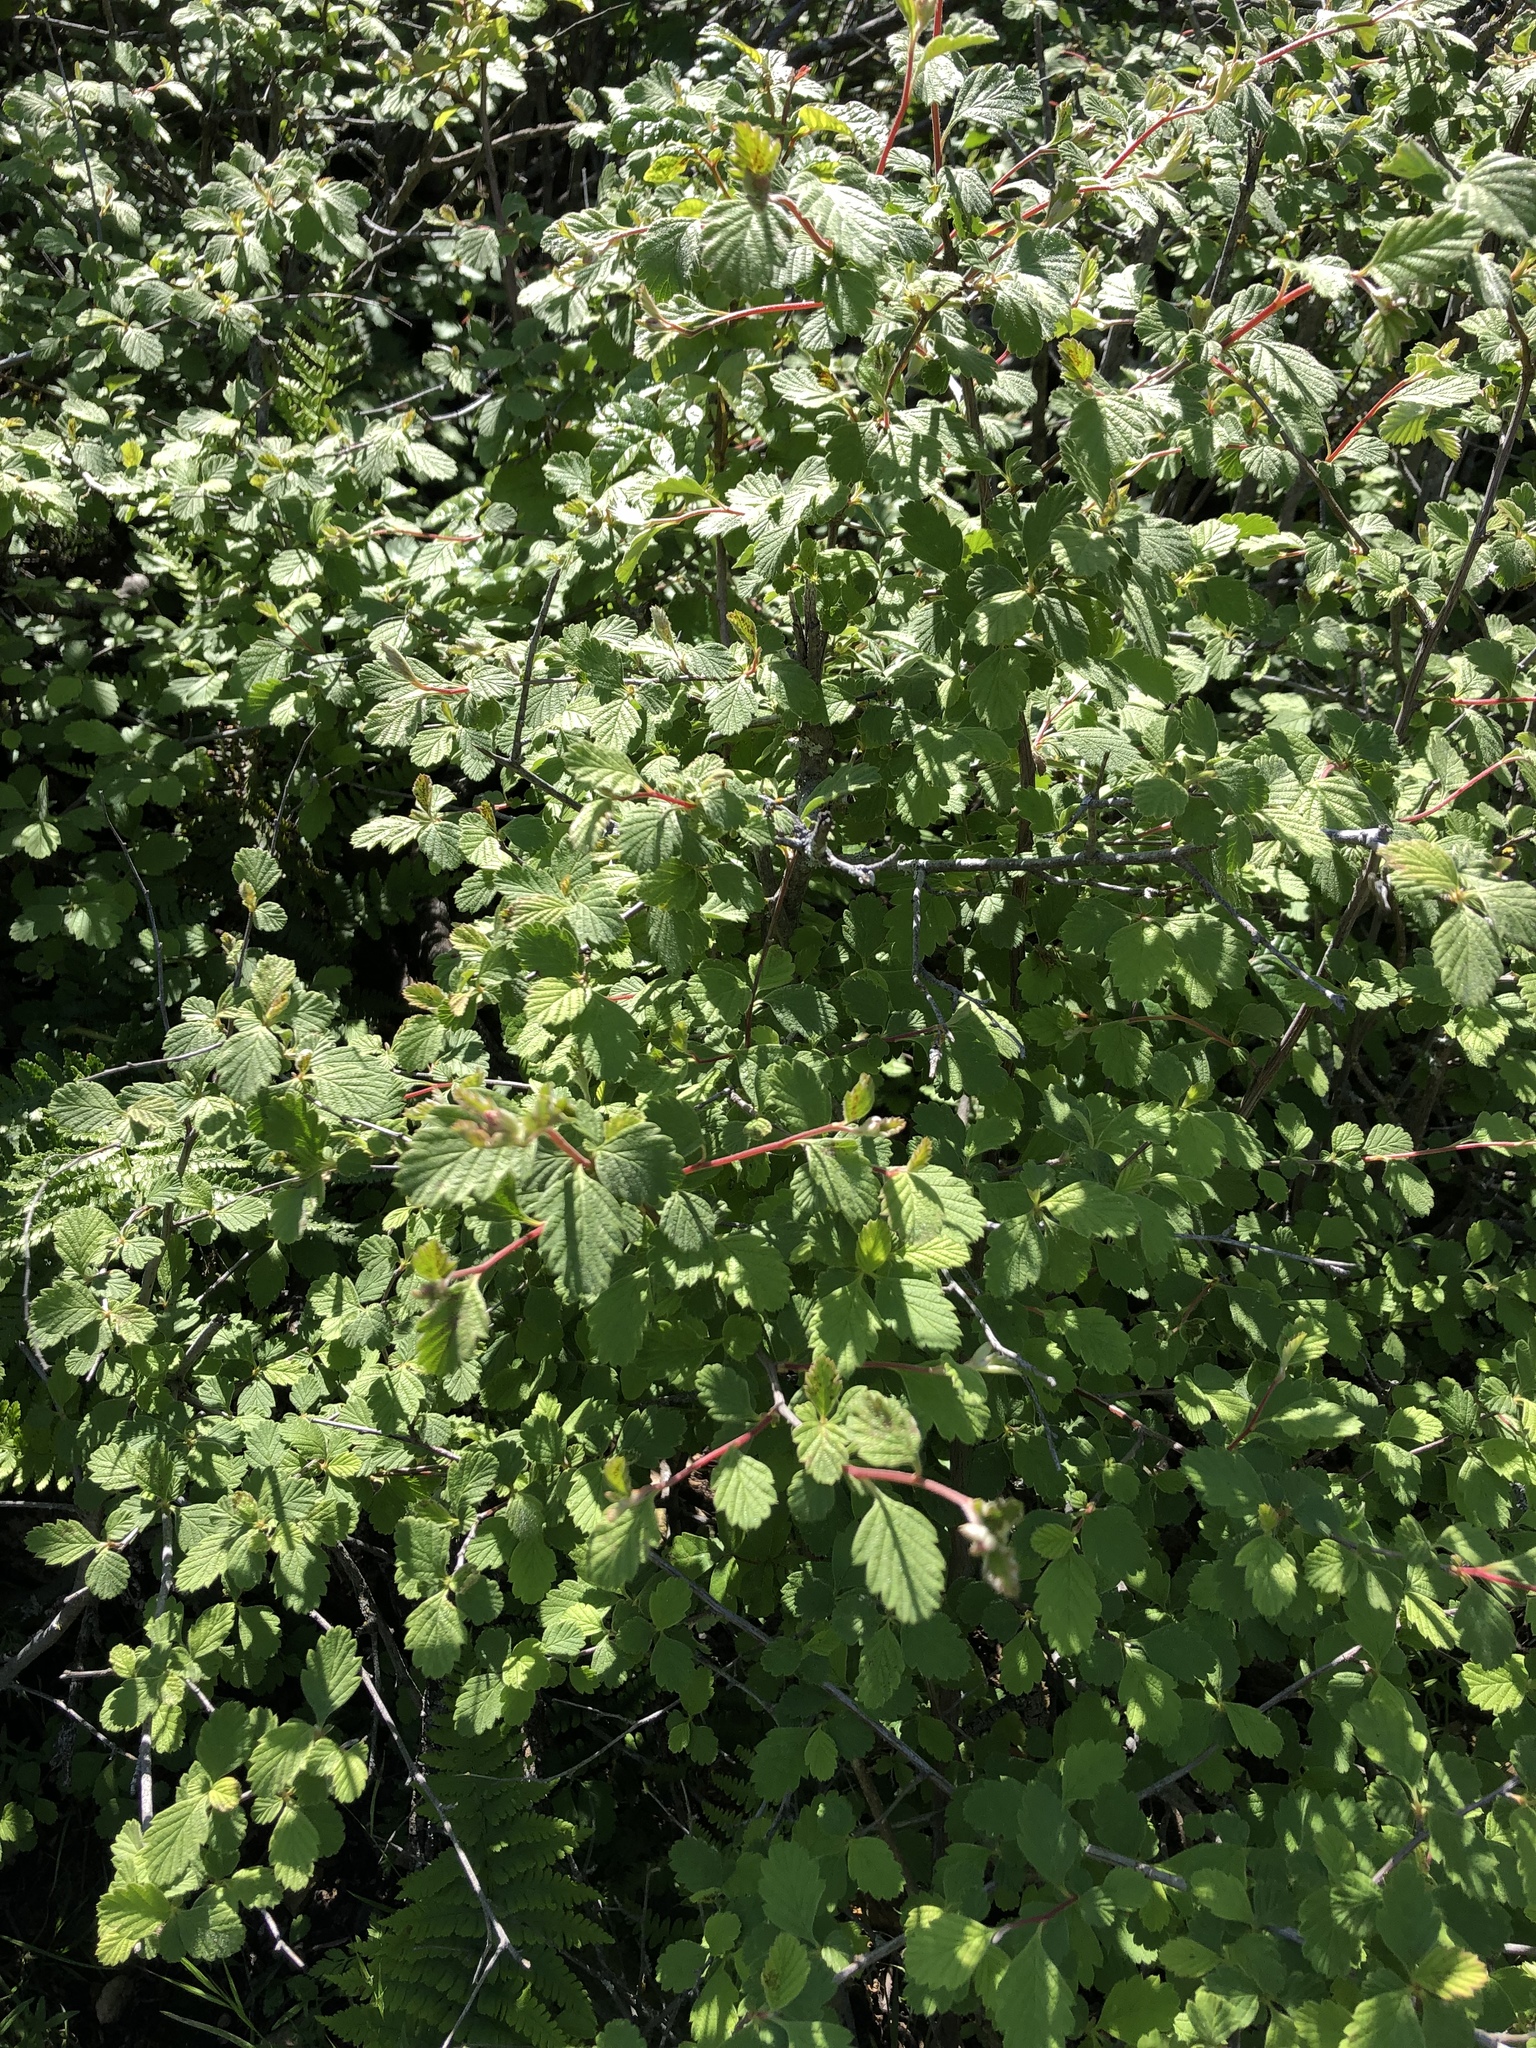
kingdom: Plantae
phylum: Tracheophyta
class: Magnoliopsida
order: Rosales
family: Rosaceae
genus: Holodiscus
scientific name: Holodiscus discolor
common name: Oceanspray
